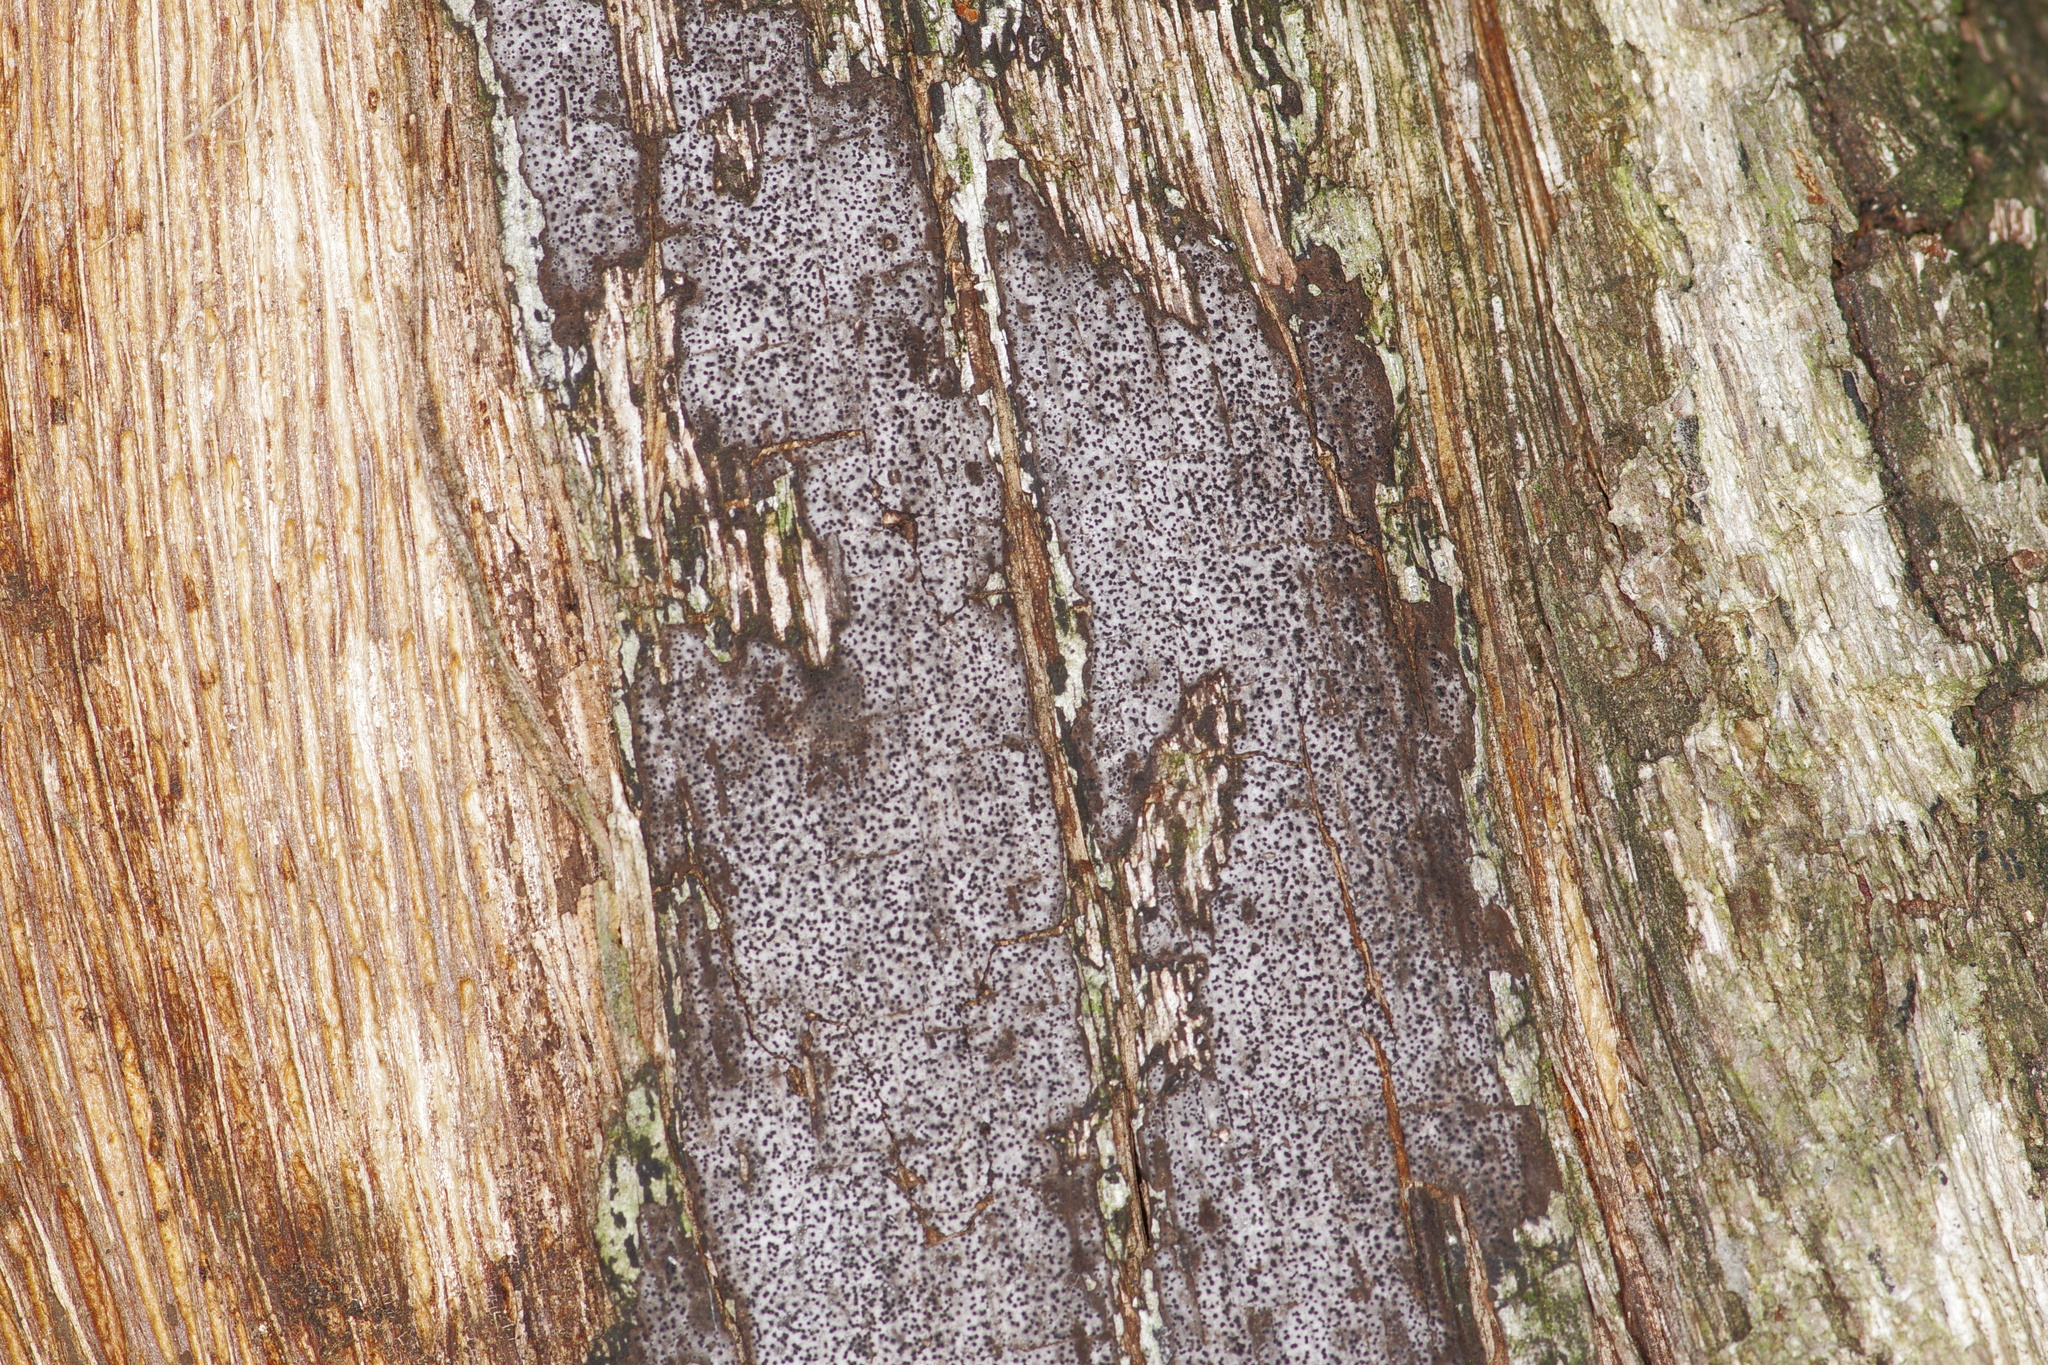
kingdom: Fungi
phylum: Ascomycota
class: Sordariomycetes
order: Xylariales
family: Graphostromataceae
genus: Biscogniauxia
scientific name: Biscogniauxia atropunctata
